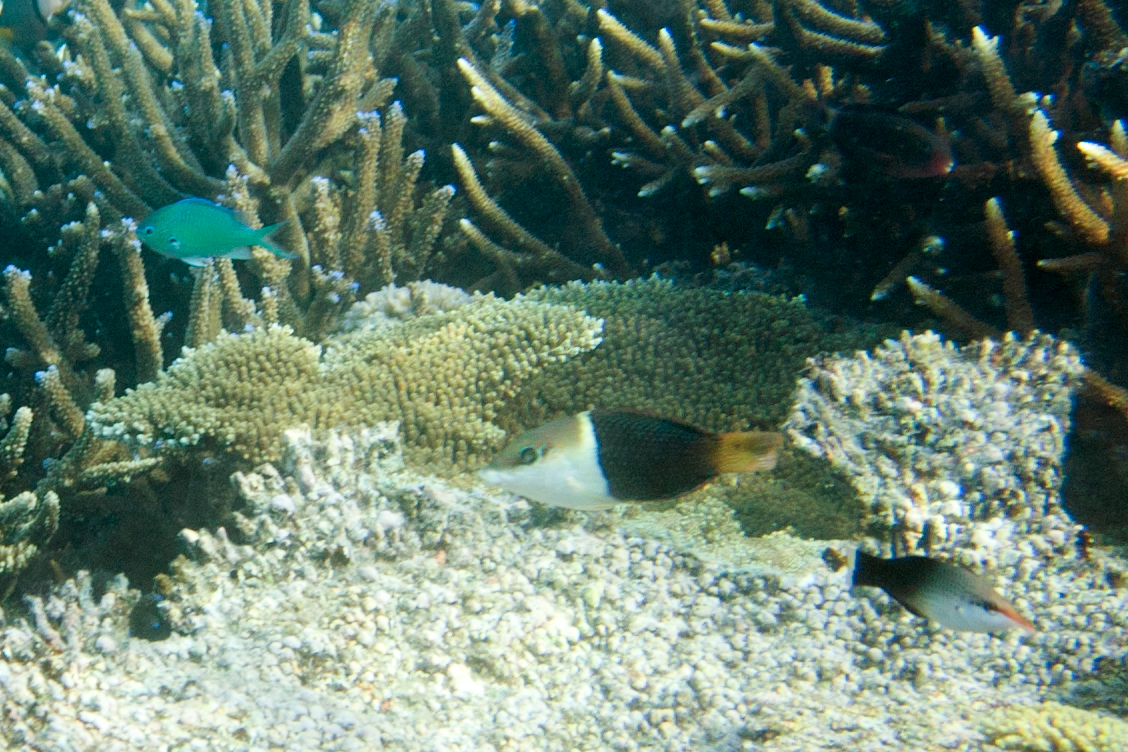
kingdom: Animalia
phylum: Chordata
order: Perciformes
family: Labridae
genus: Gomphosus
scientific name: Gomphosus varius
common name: Bird wrasse
